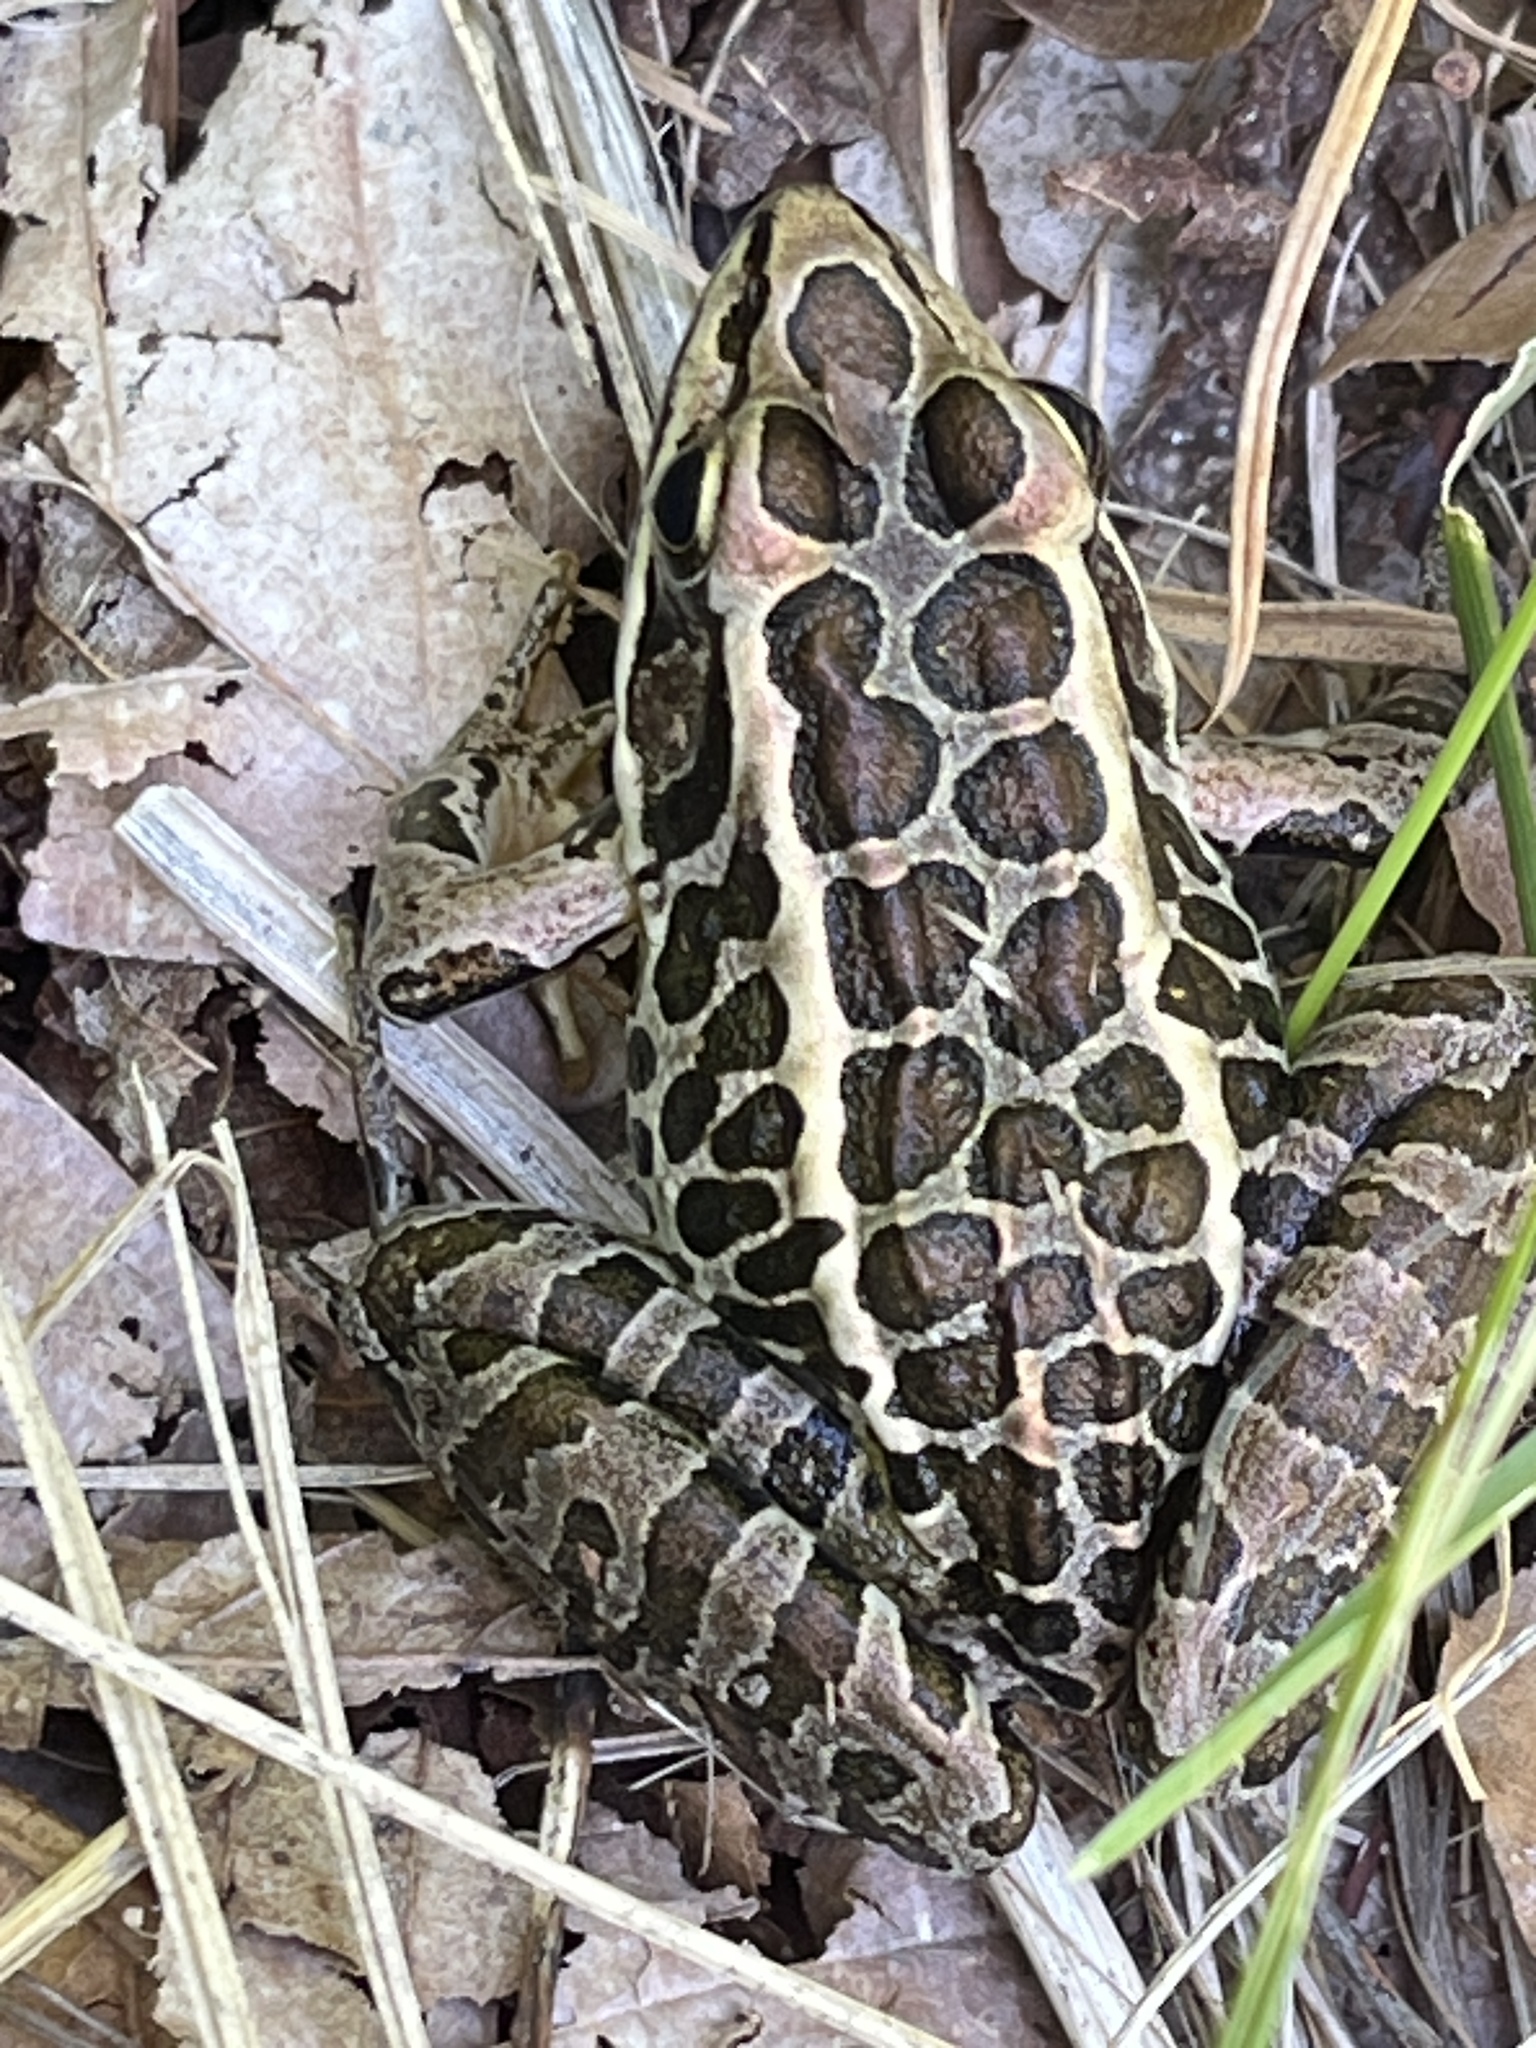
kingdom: Animalia
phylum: Chordata
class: Amphibia
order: Anura
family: Ranidae
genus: Lithobates
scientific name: Lithobates palustris
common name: Pickerel frog
